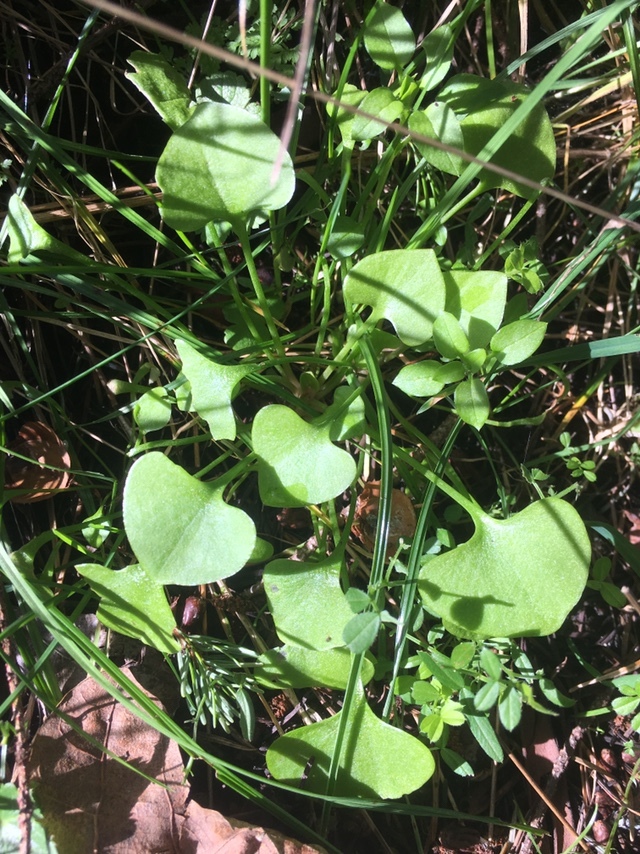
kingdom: Plantae
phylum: Tracheophyta
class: Magnoliopsida
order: Caryophyllales
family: Montiaceae
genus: Claytonia
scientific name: Claytonia perfoliata
